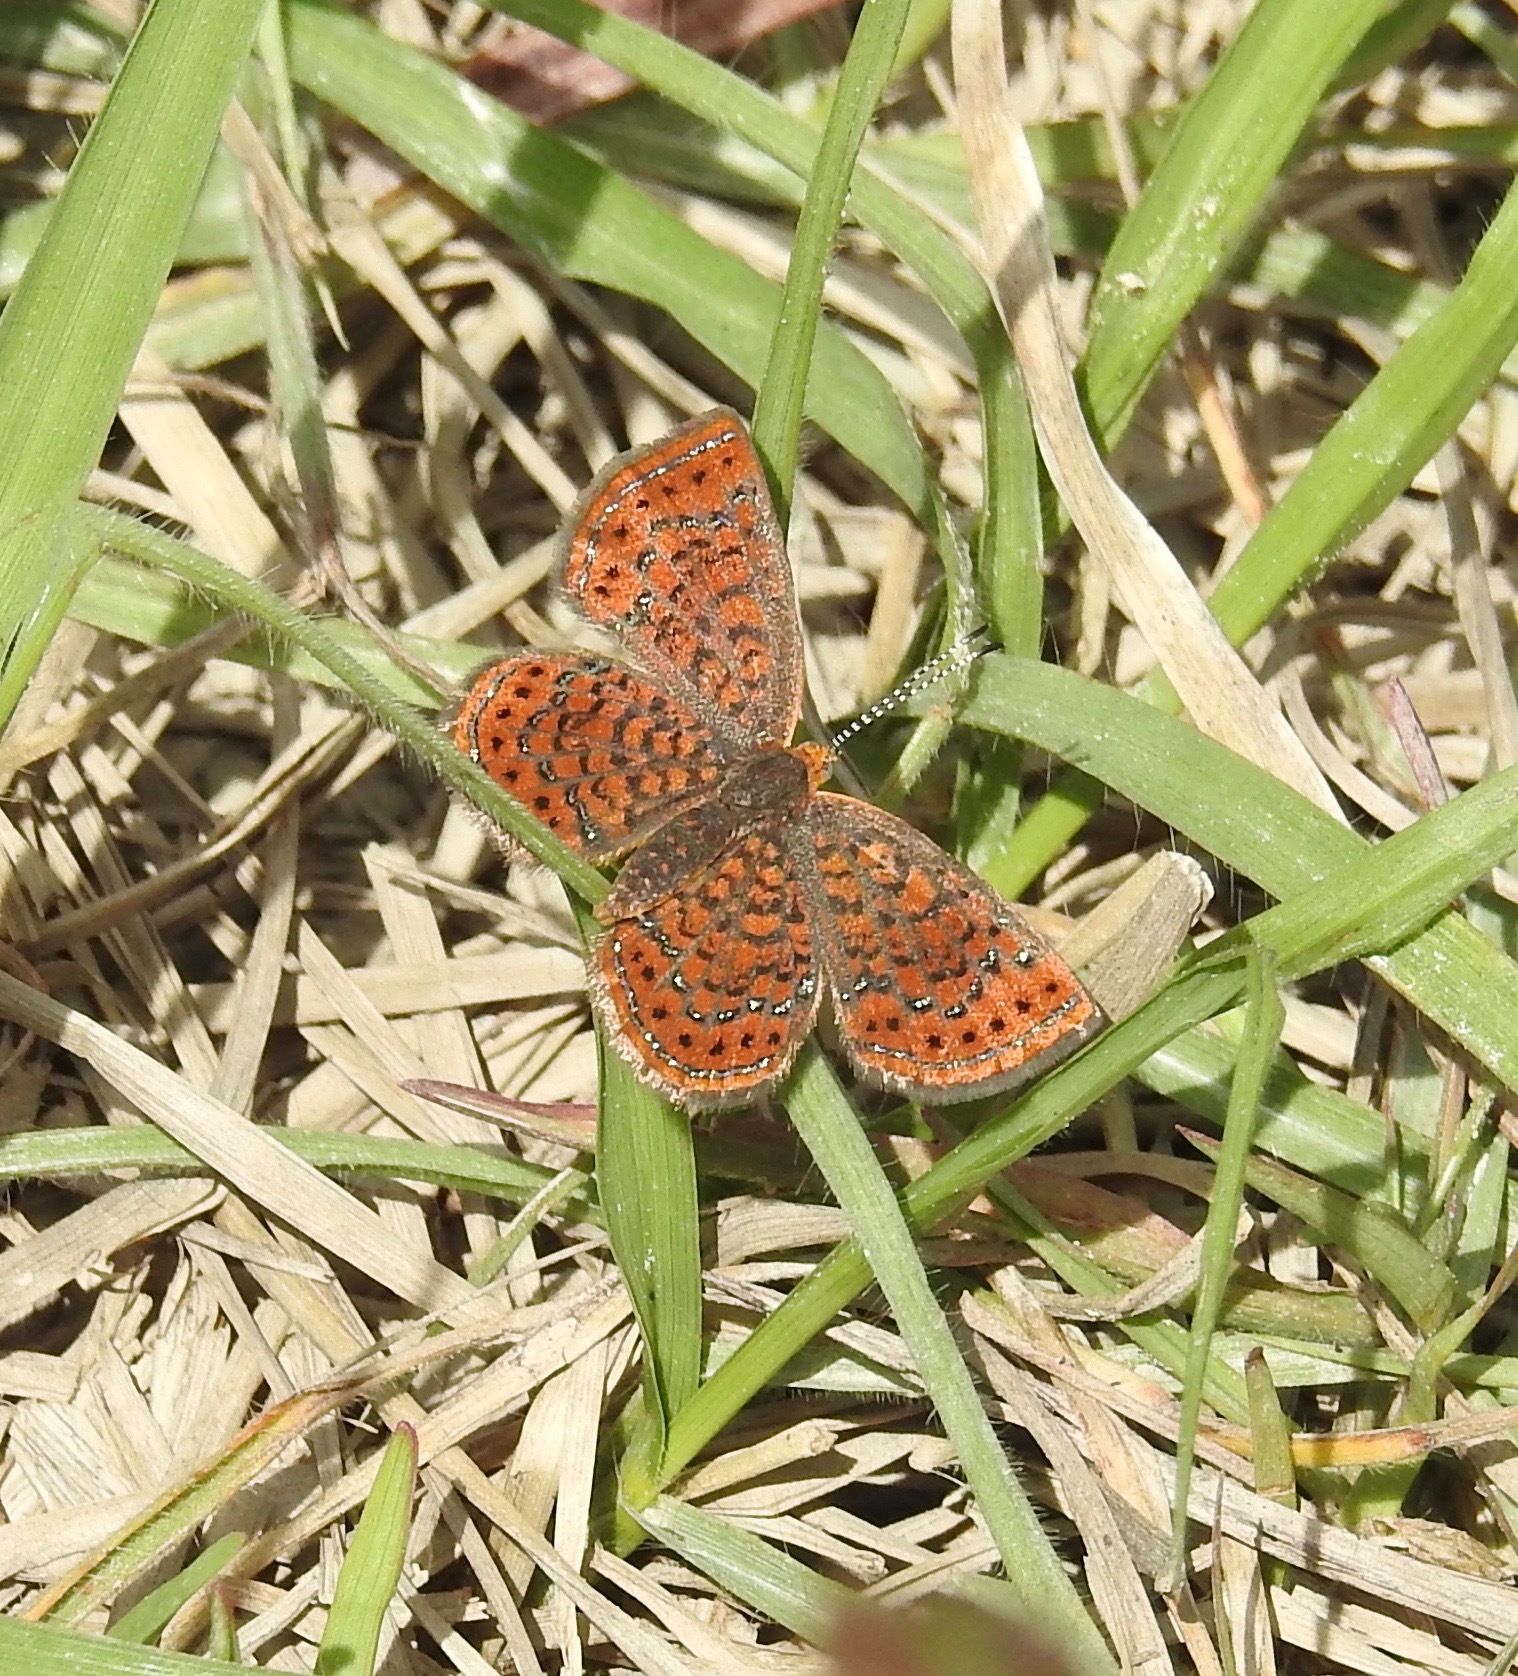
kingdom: Animalia
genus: Calephelis
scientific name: Calephelis virginiensis
